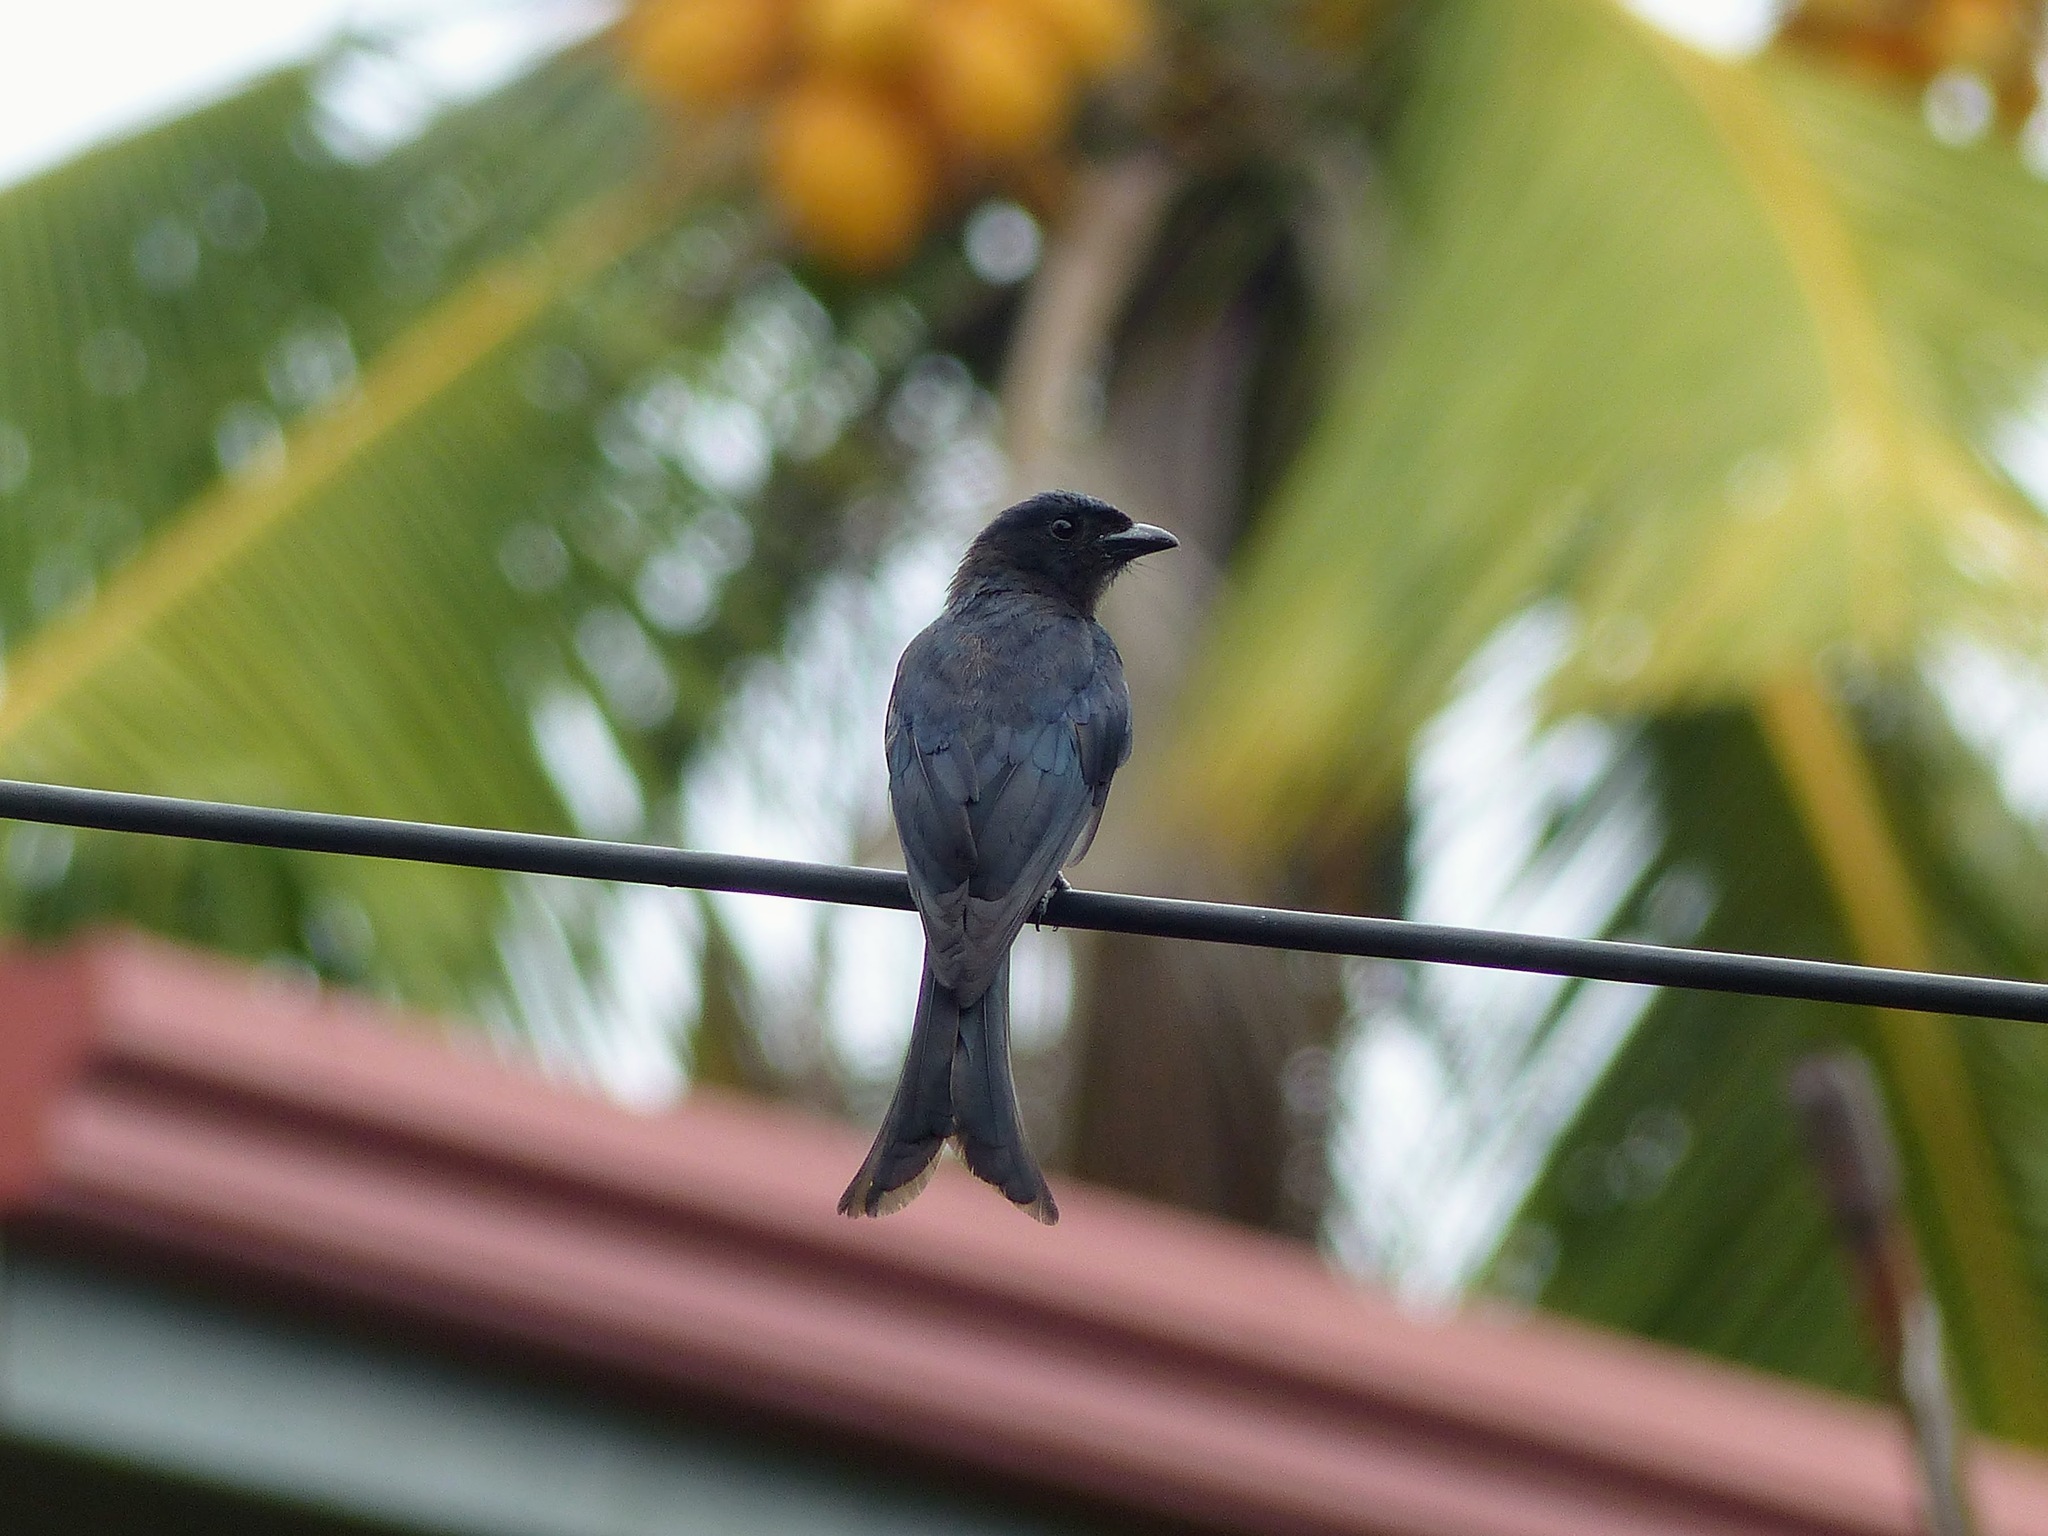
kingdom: Animalia
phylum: Chordata
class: Aves
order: Passeriformes
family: Dicruridae
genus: Dicrurus
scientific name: Dicrurus caerulescens
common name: White-bellied drongo
